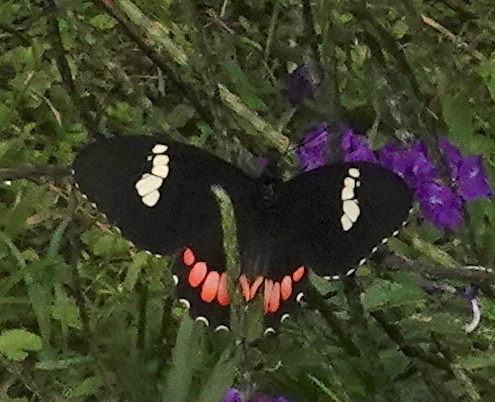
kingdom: Animalia
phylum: Arthropoda
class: Insecta
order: Lepidoptera
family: Papilionidae
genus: Parides
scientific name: Parides erithalion
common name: Variable cattleheart
